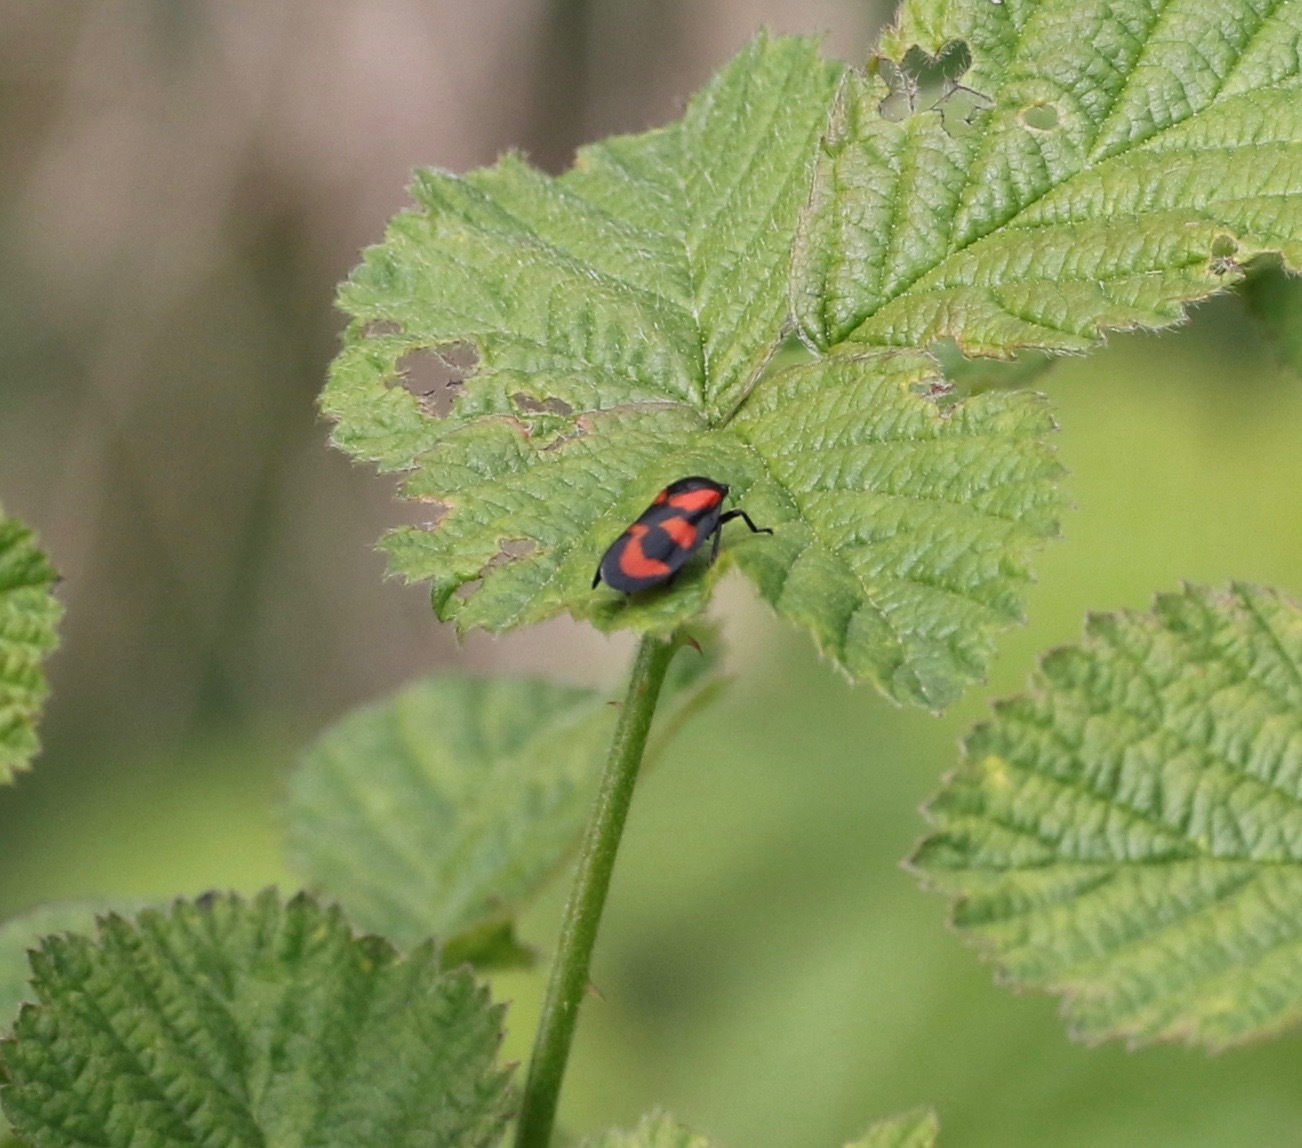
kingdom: Animalia
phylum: Arthropoda
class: Insecta
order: Hemiptera
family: Cercopidae
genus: Cercopis
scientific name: Cercopis vulnerata
